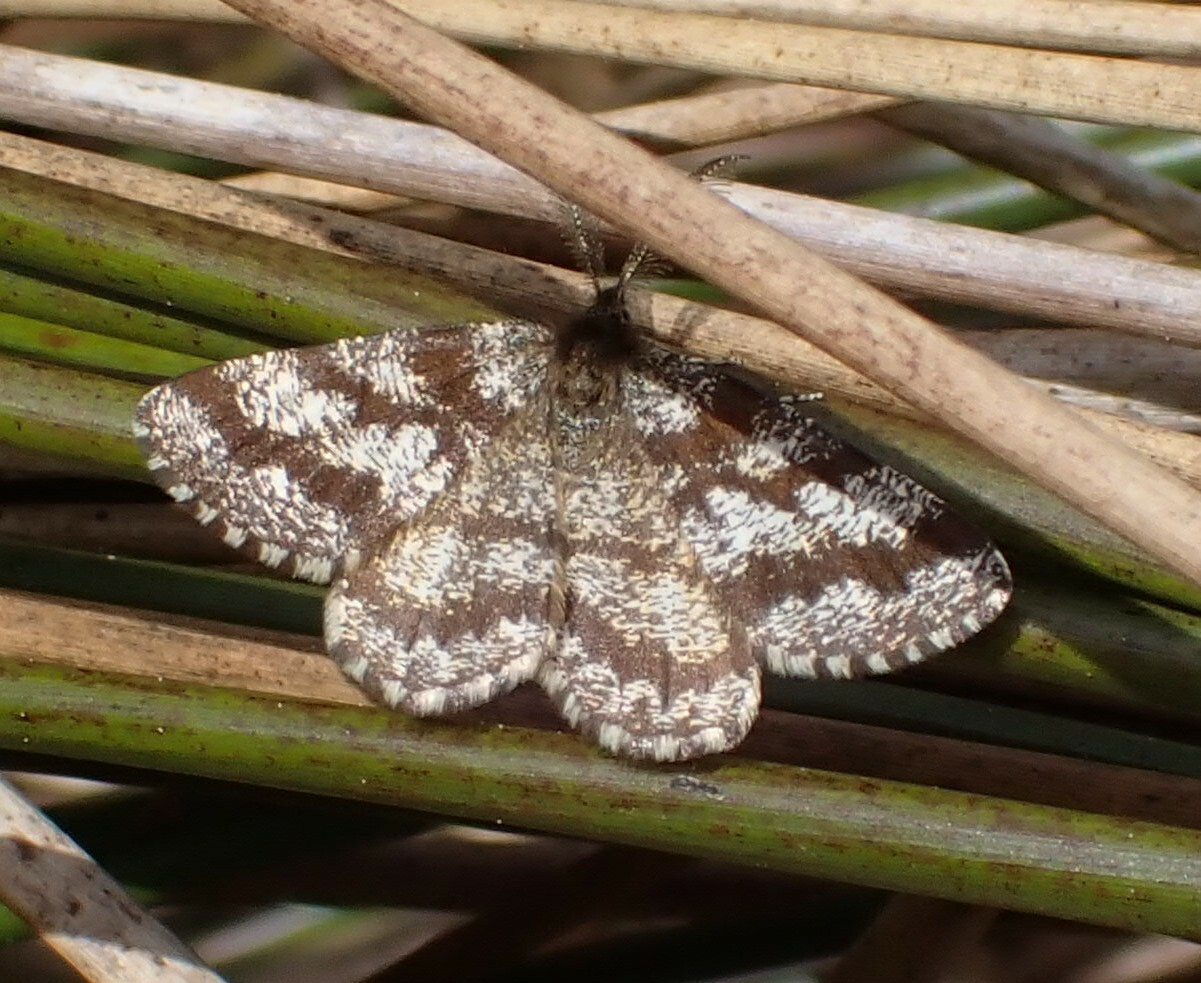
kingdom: Animalia
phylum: Arthropoda
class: Insecta
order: Lepidoptera
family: Geometridae
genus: Ematurga
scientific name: Ematurga atomaria
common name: Common heath
